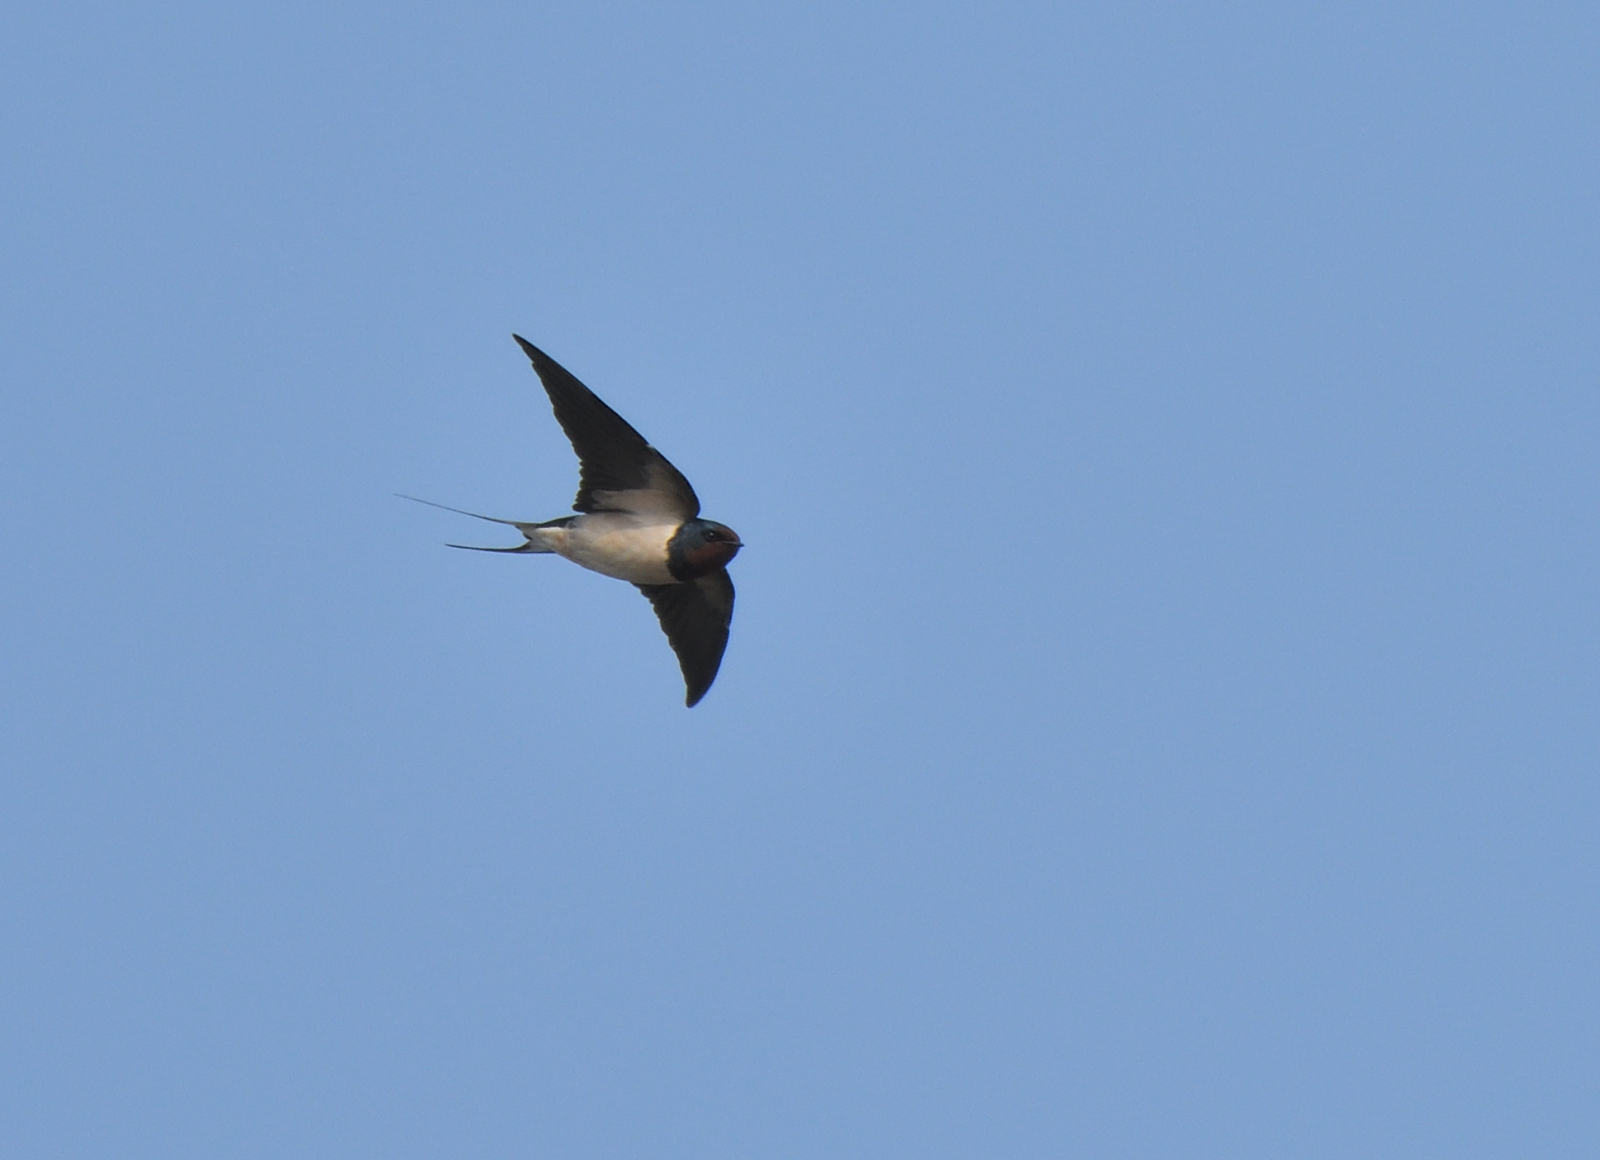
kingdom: Animalia
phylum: Chordata
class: Aves
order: Passeriformes
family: Hirundinidae
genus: Hirundo
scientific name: Hirundo rustica
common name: Barn swallow
